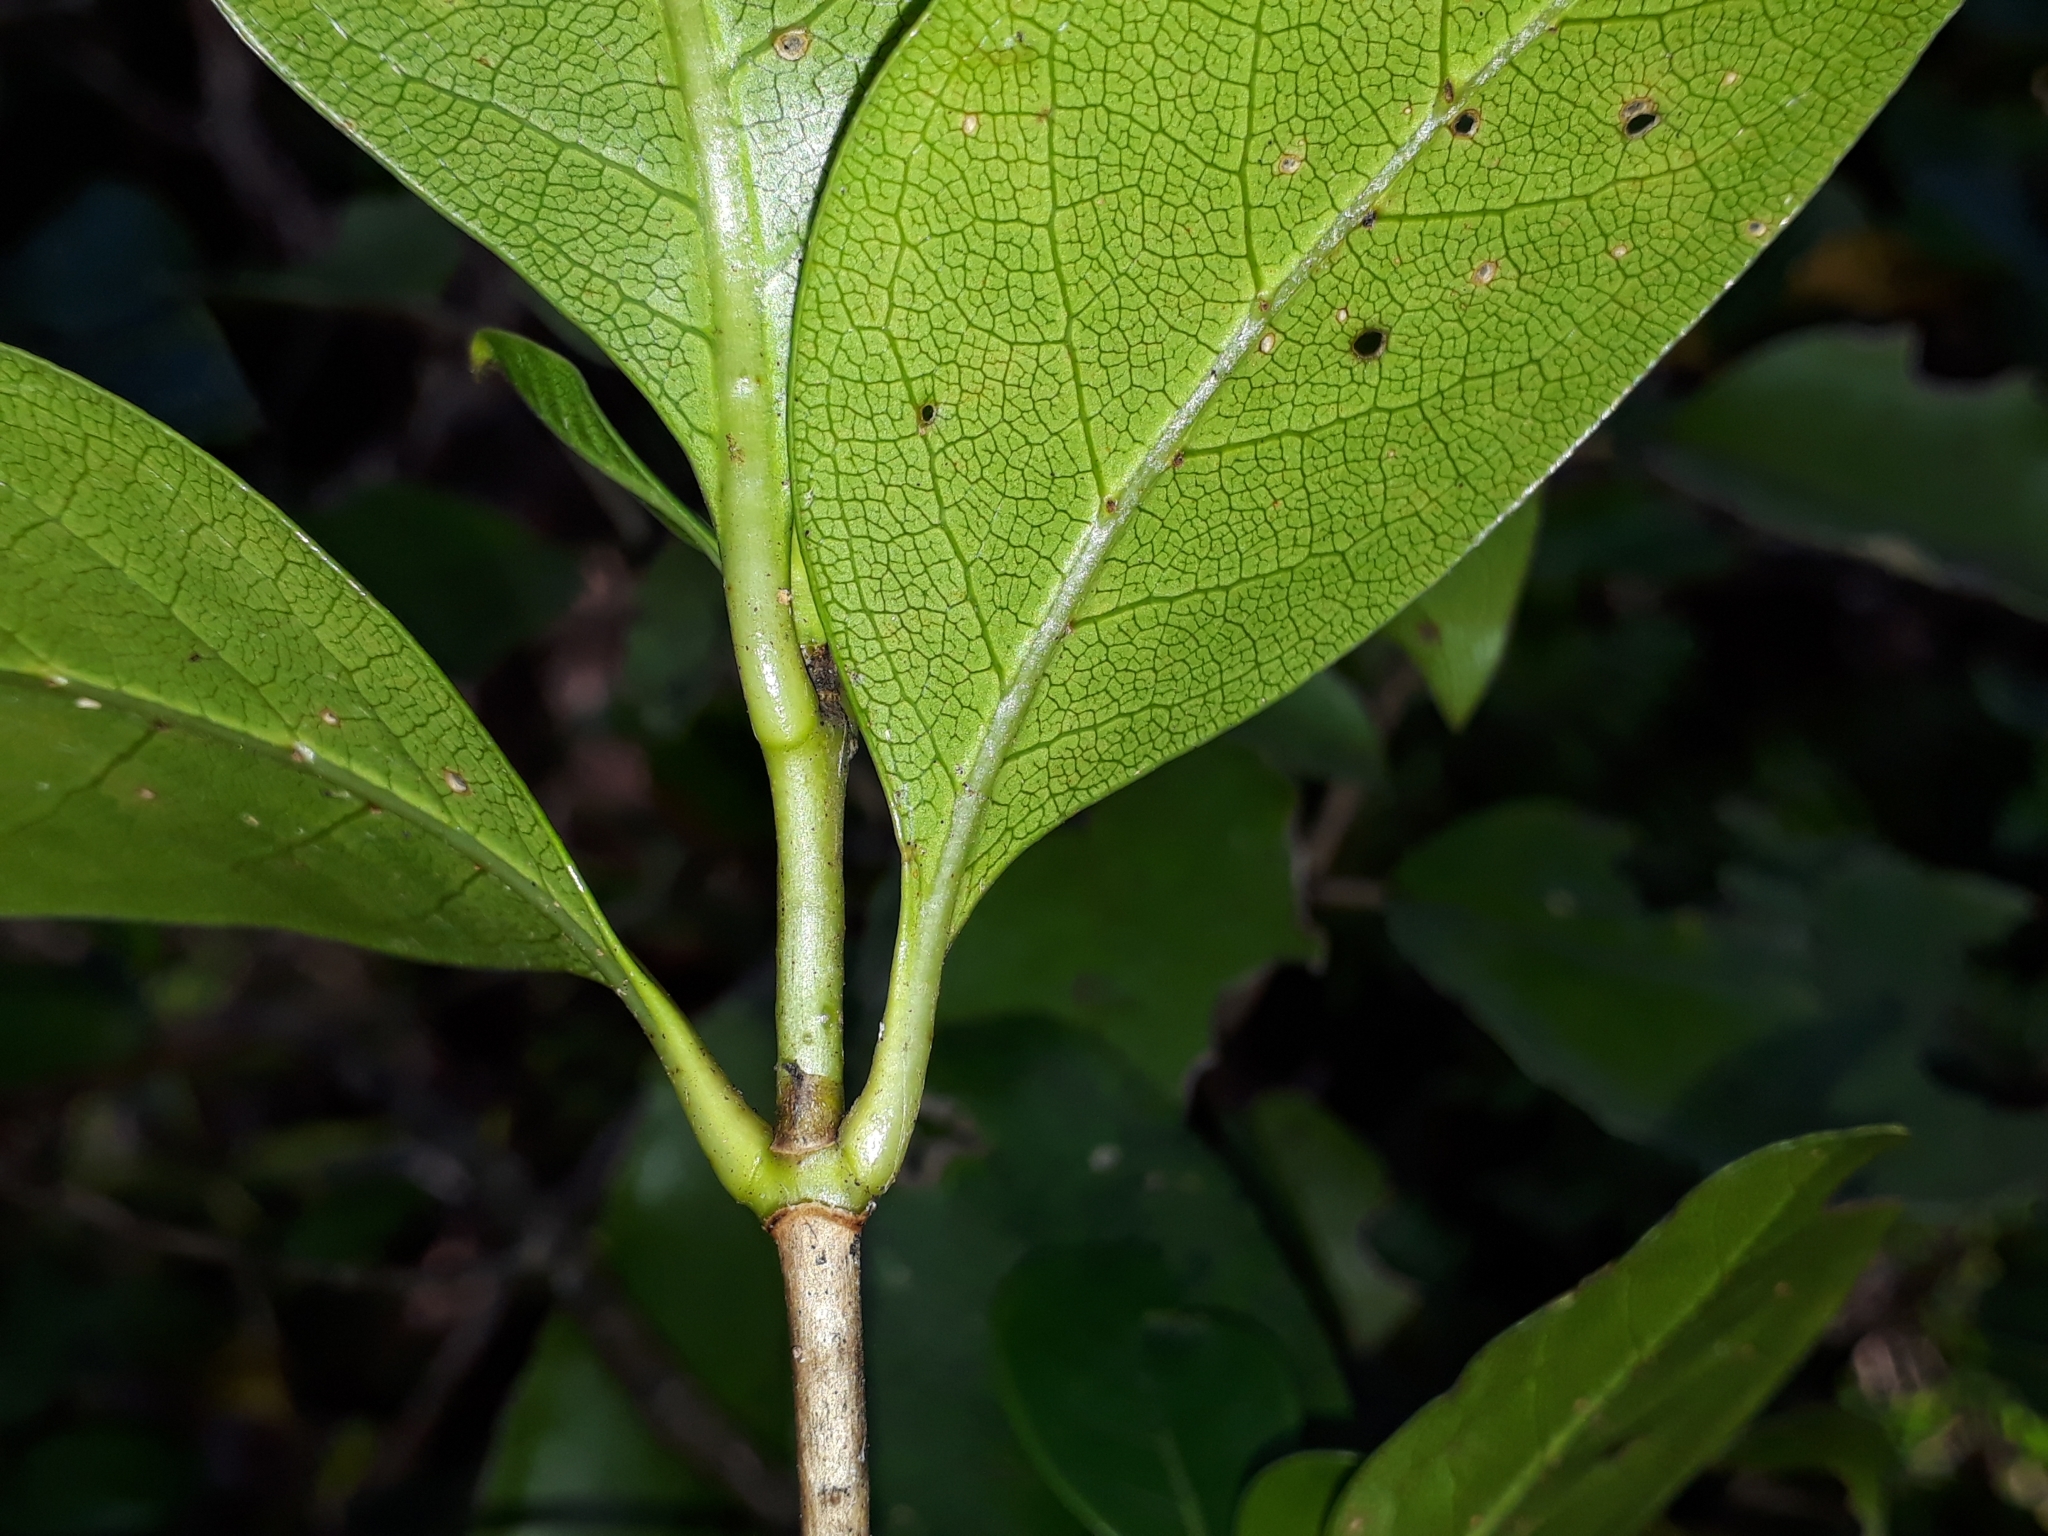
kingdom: Plantae
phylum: Tracheophyta
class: Magnoliopsida
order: Gentianales
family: Rubiaceae
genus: Coprosma
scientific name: Coprosma macrocarpa
